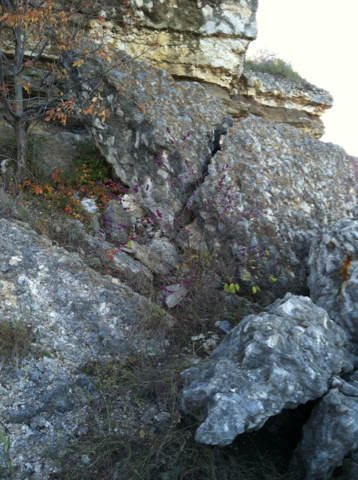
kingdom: Plantae
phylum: Tracheophyta
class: Magnoliopsida
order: Lamiales
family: Lamiaceae
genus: Callicarpa
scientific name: Callicarpa americana
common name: American beautyberry
